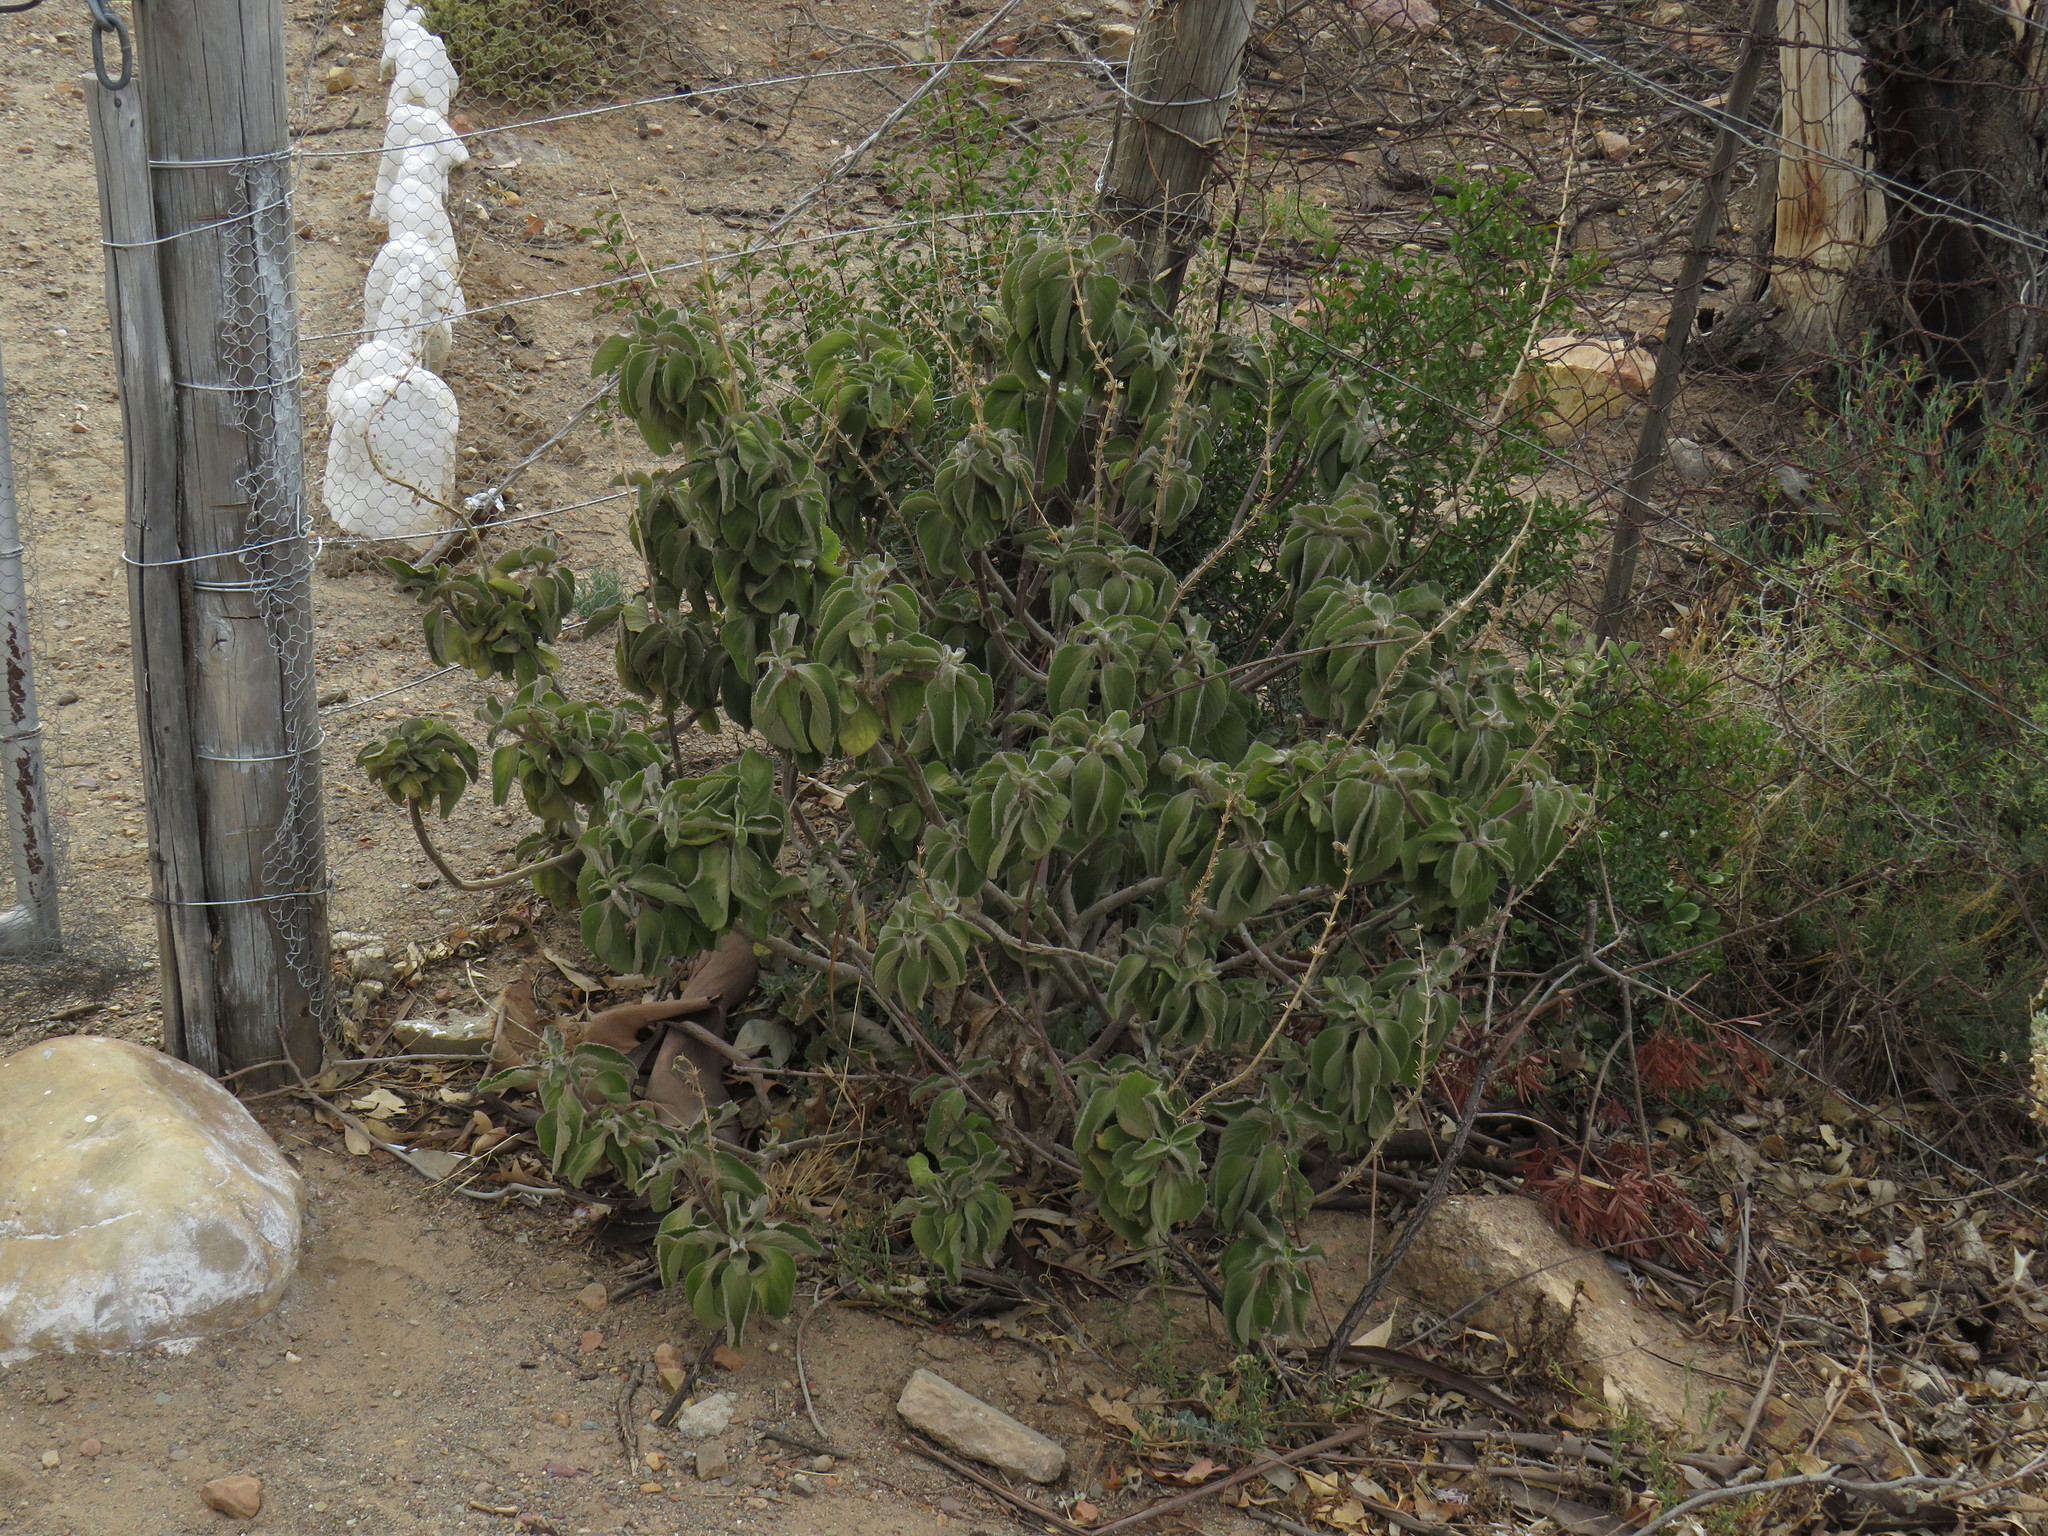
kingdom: Plantae
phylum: Tracheophyta
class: Magnoliopsida
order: Lamiales
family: Lamiaceae
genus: Coleus
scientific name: Coleus barbatus
